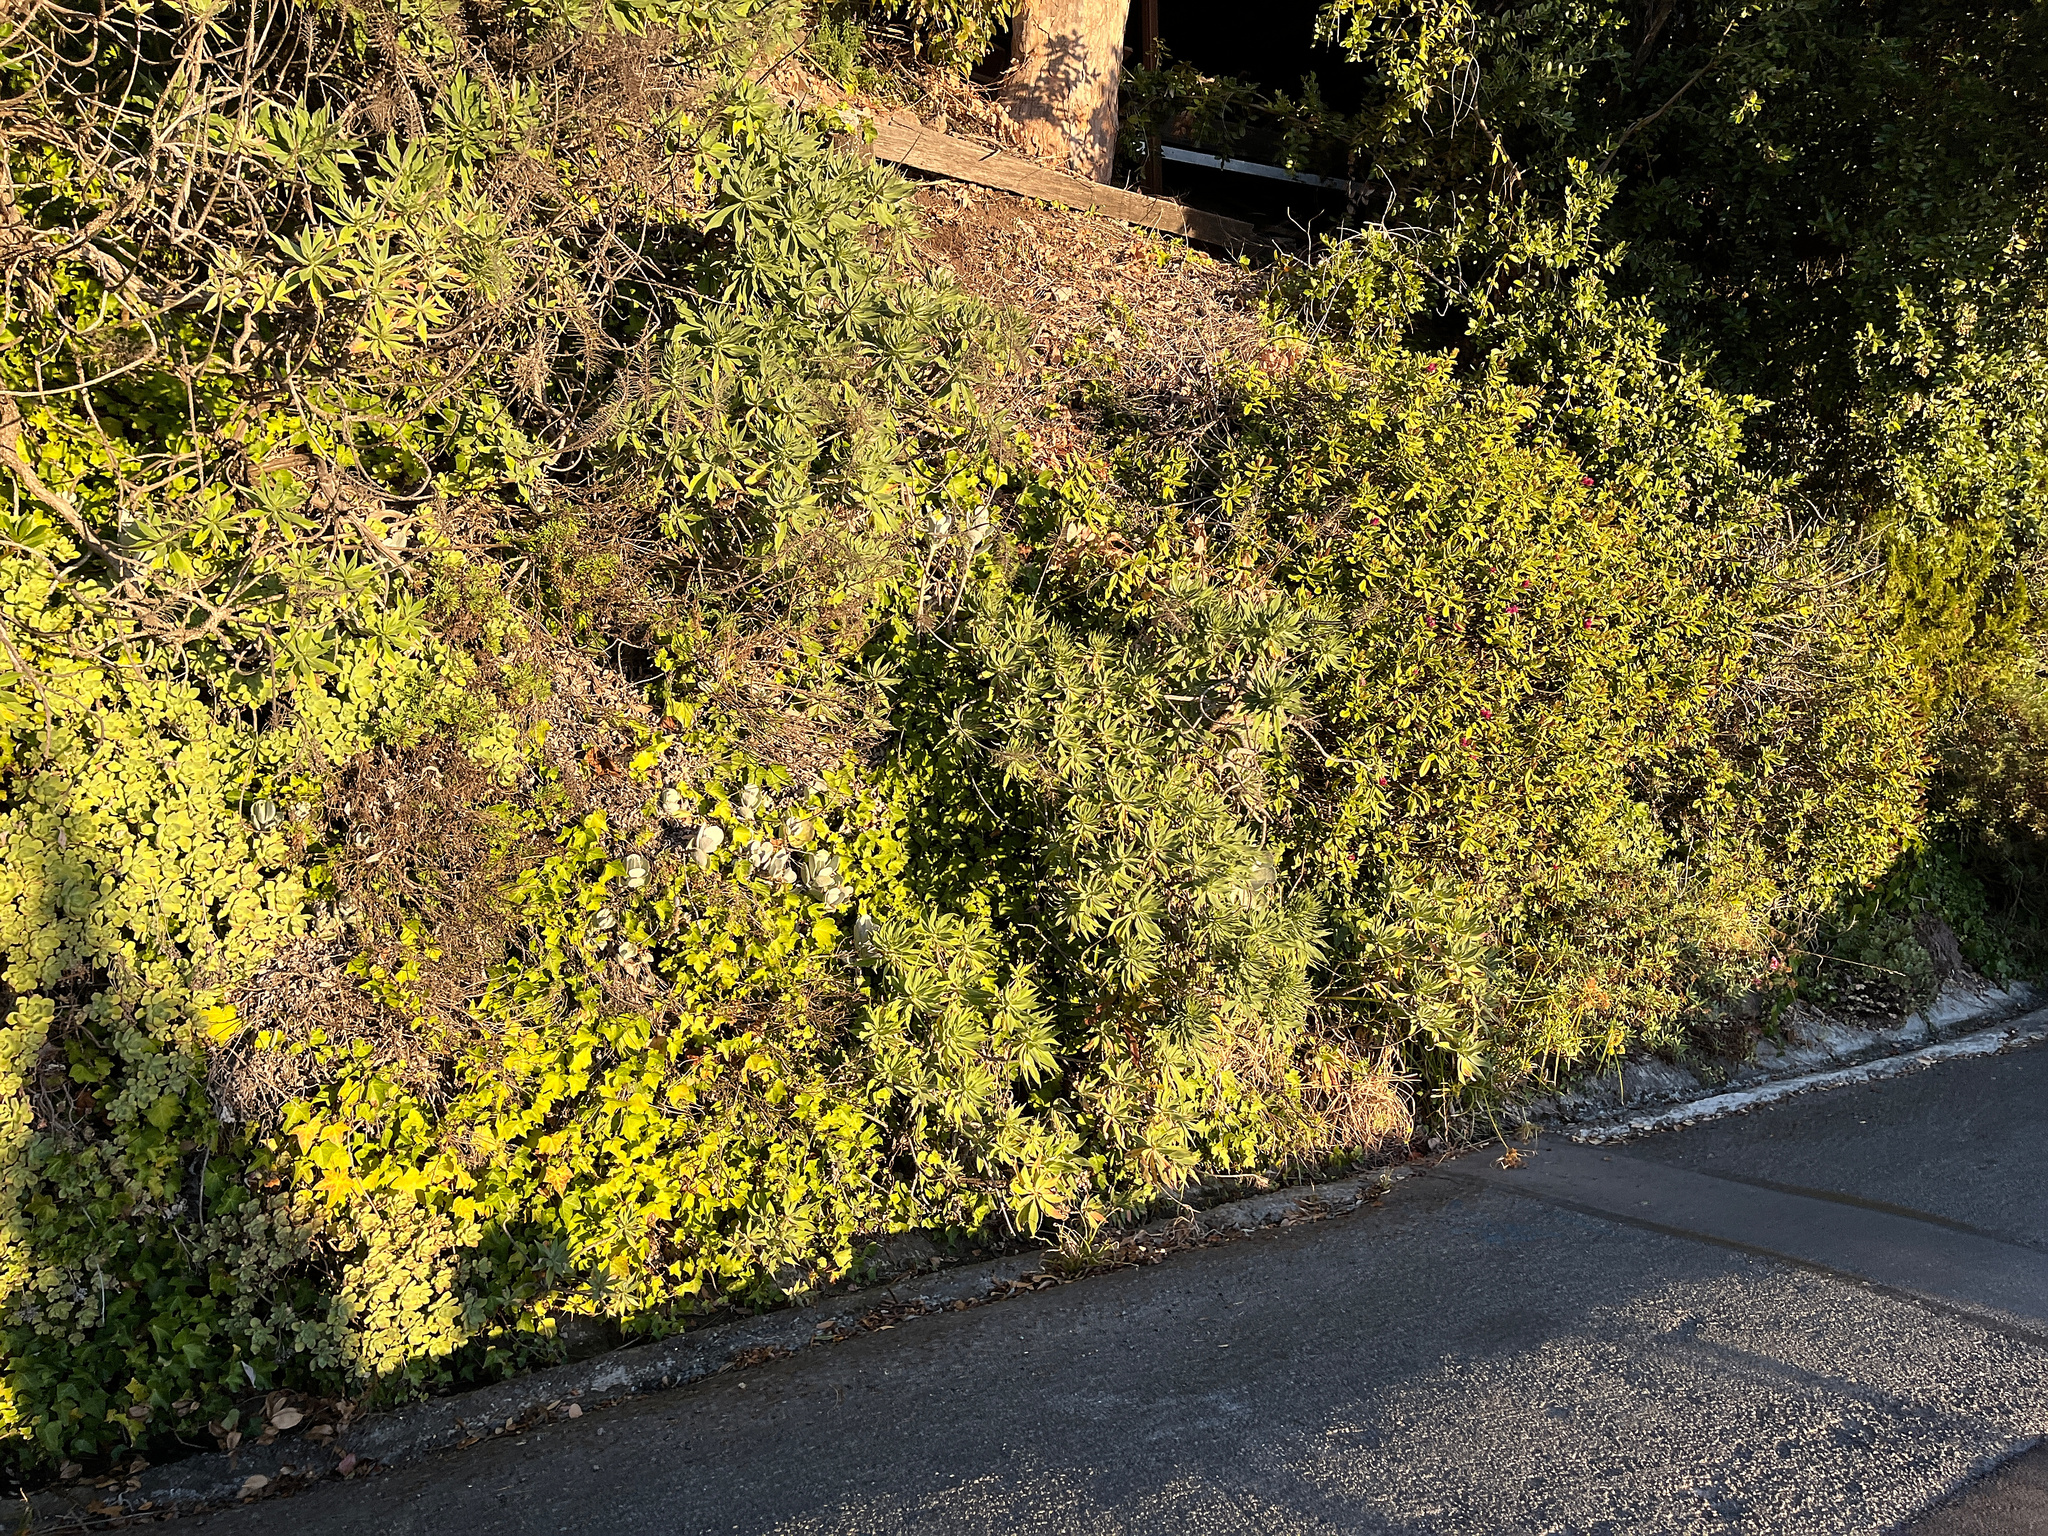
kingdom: Plantae
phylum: Tracheophyta
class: Magnoliopsida
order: Saxifragales
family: Crassulaceae
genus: Cotyledon
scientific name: Cotyledon orbiculata
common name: Pig's ear
